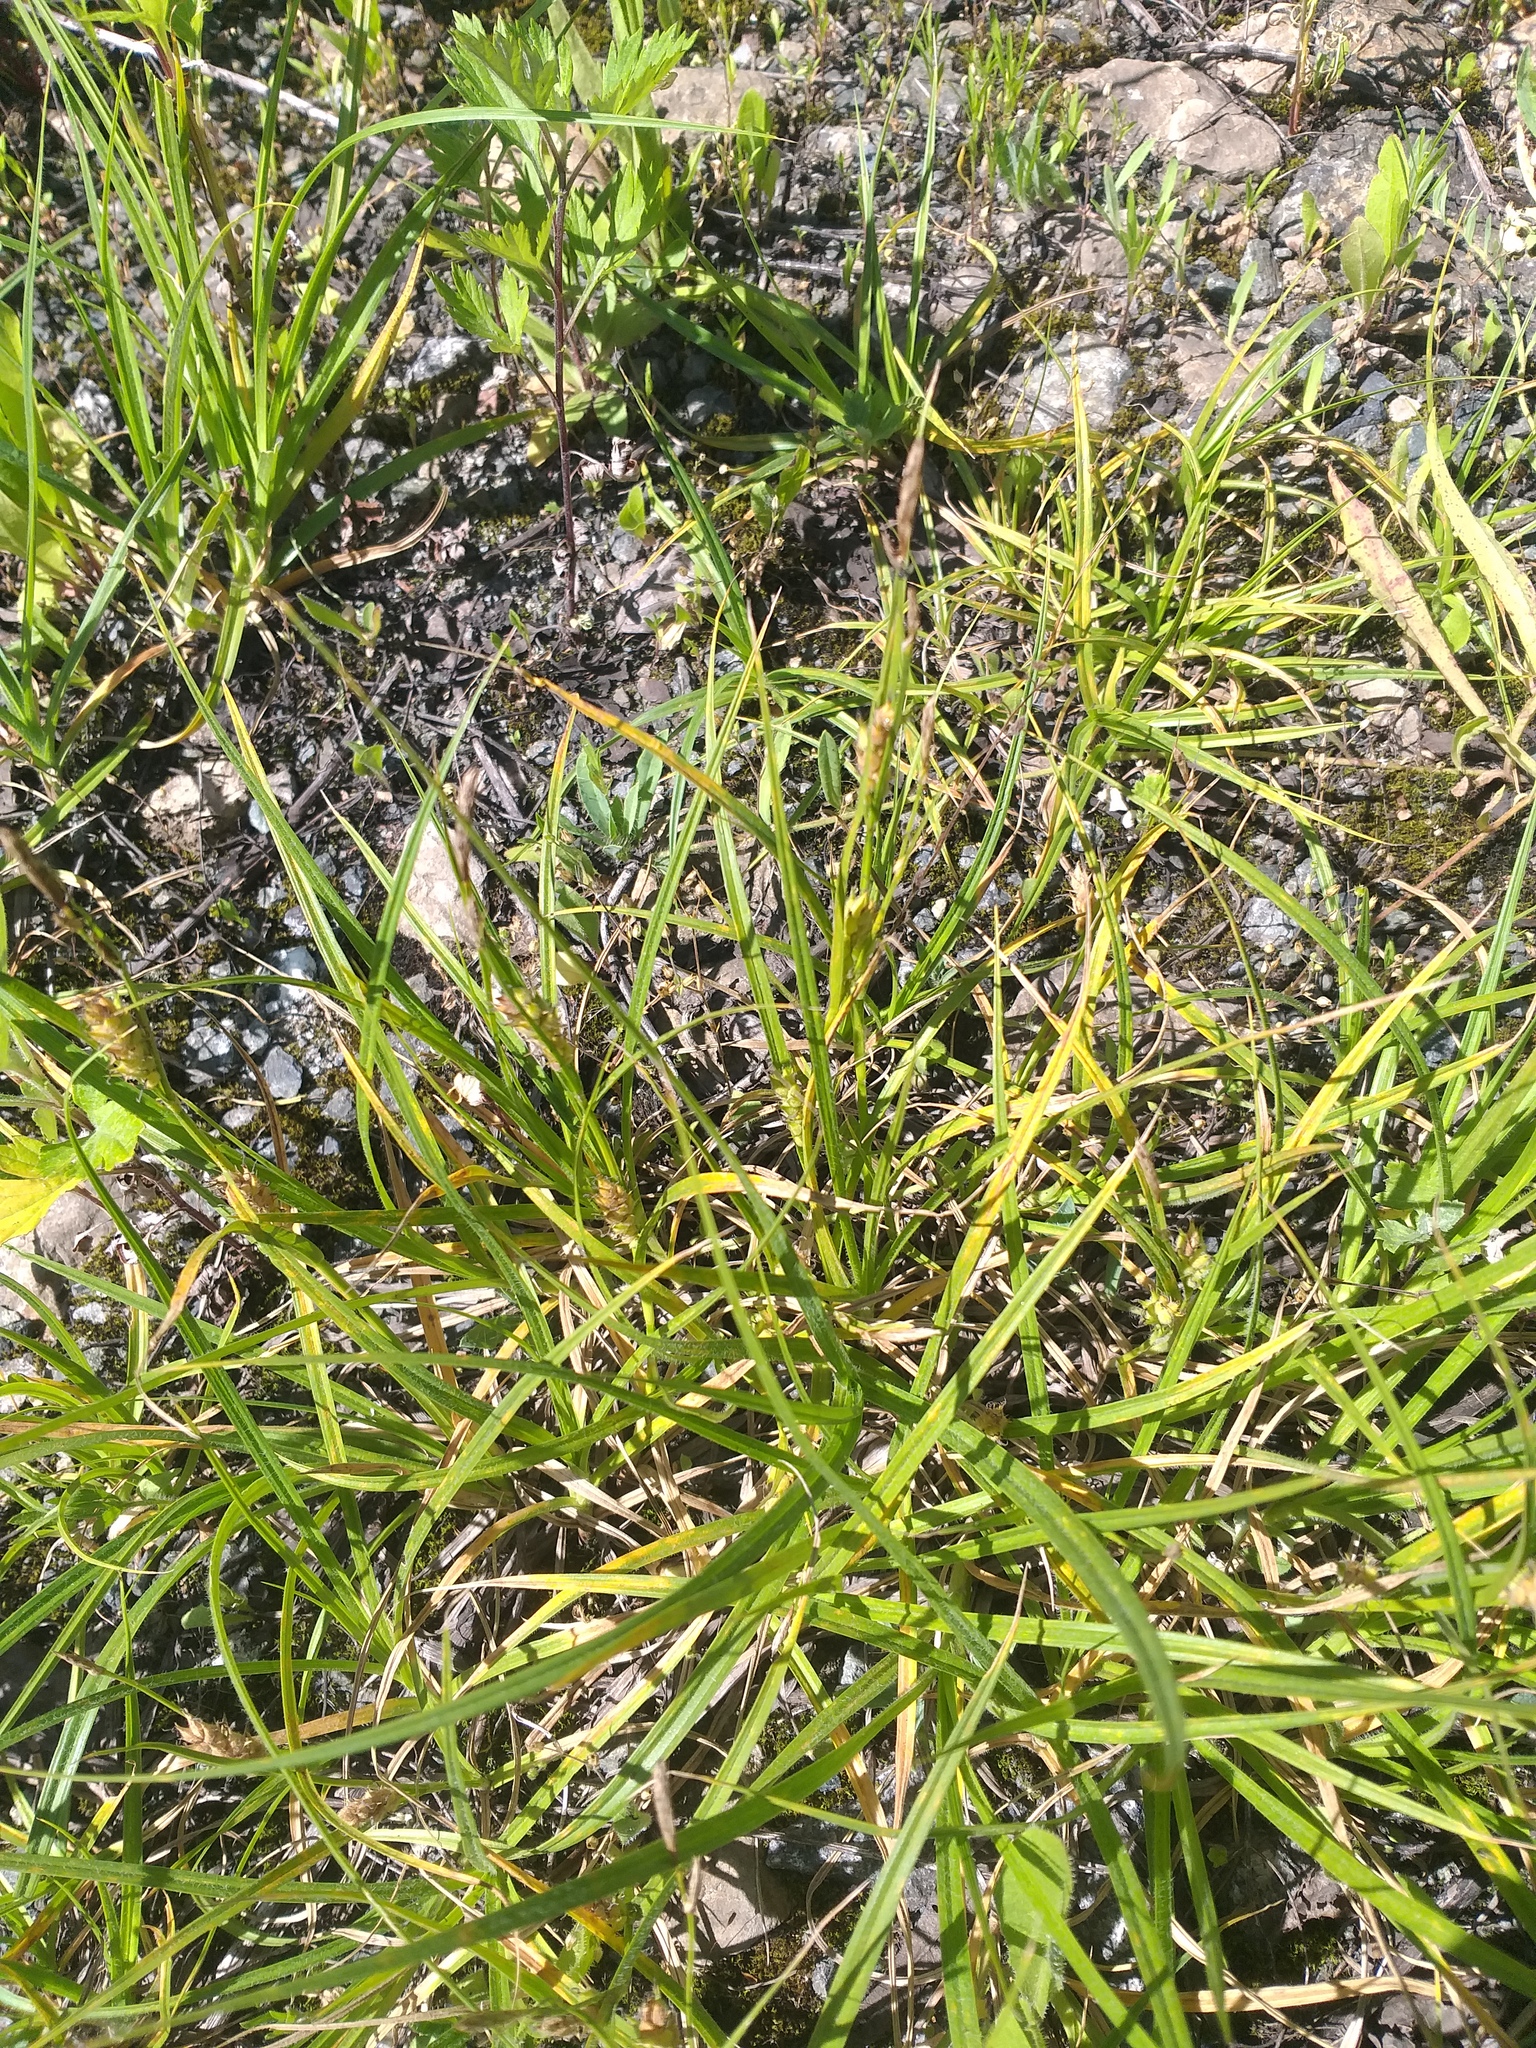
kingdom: Plantae
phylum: Tracheophyta
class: Liliopsida
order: Poales
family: Cyperaceae
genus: Carex
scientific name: Carex hirta
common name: Hairy sedge
